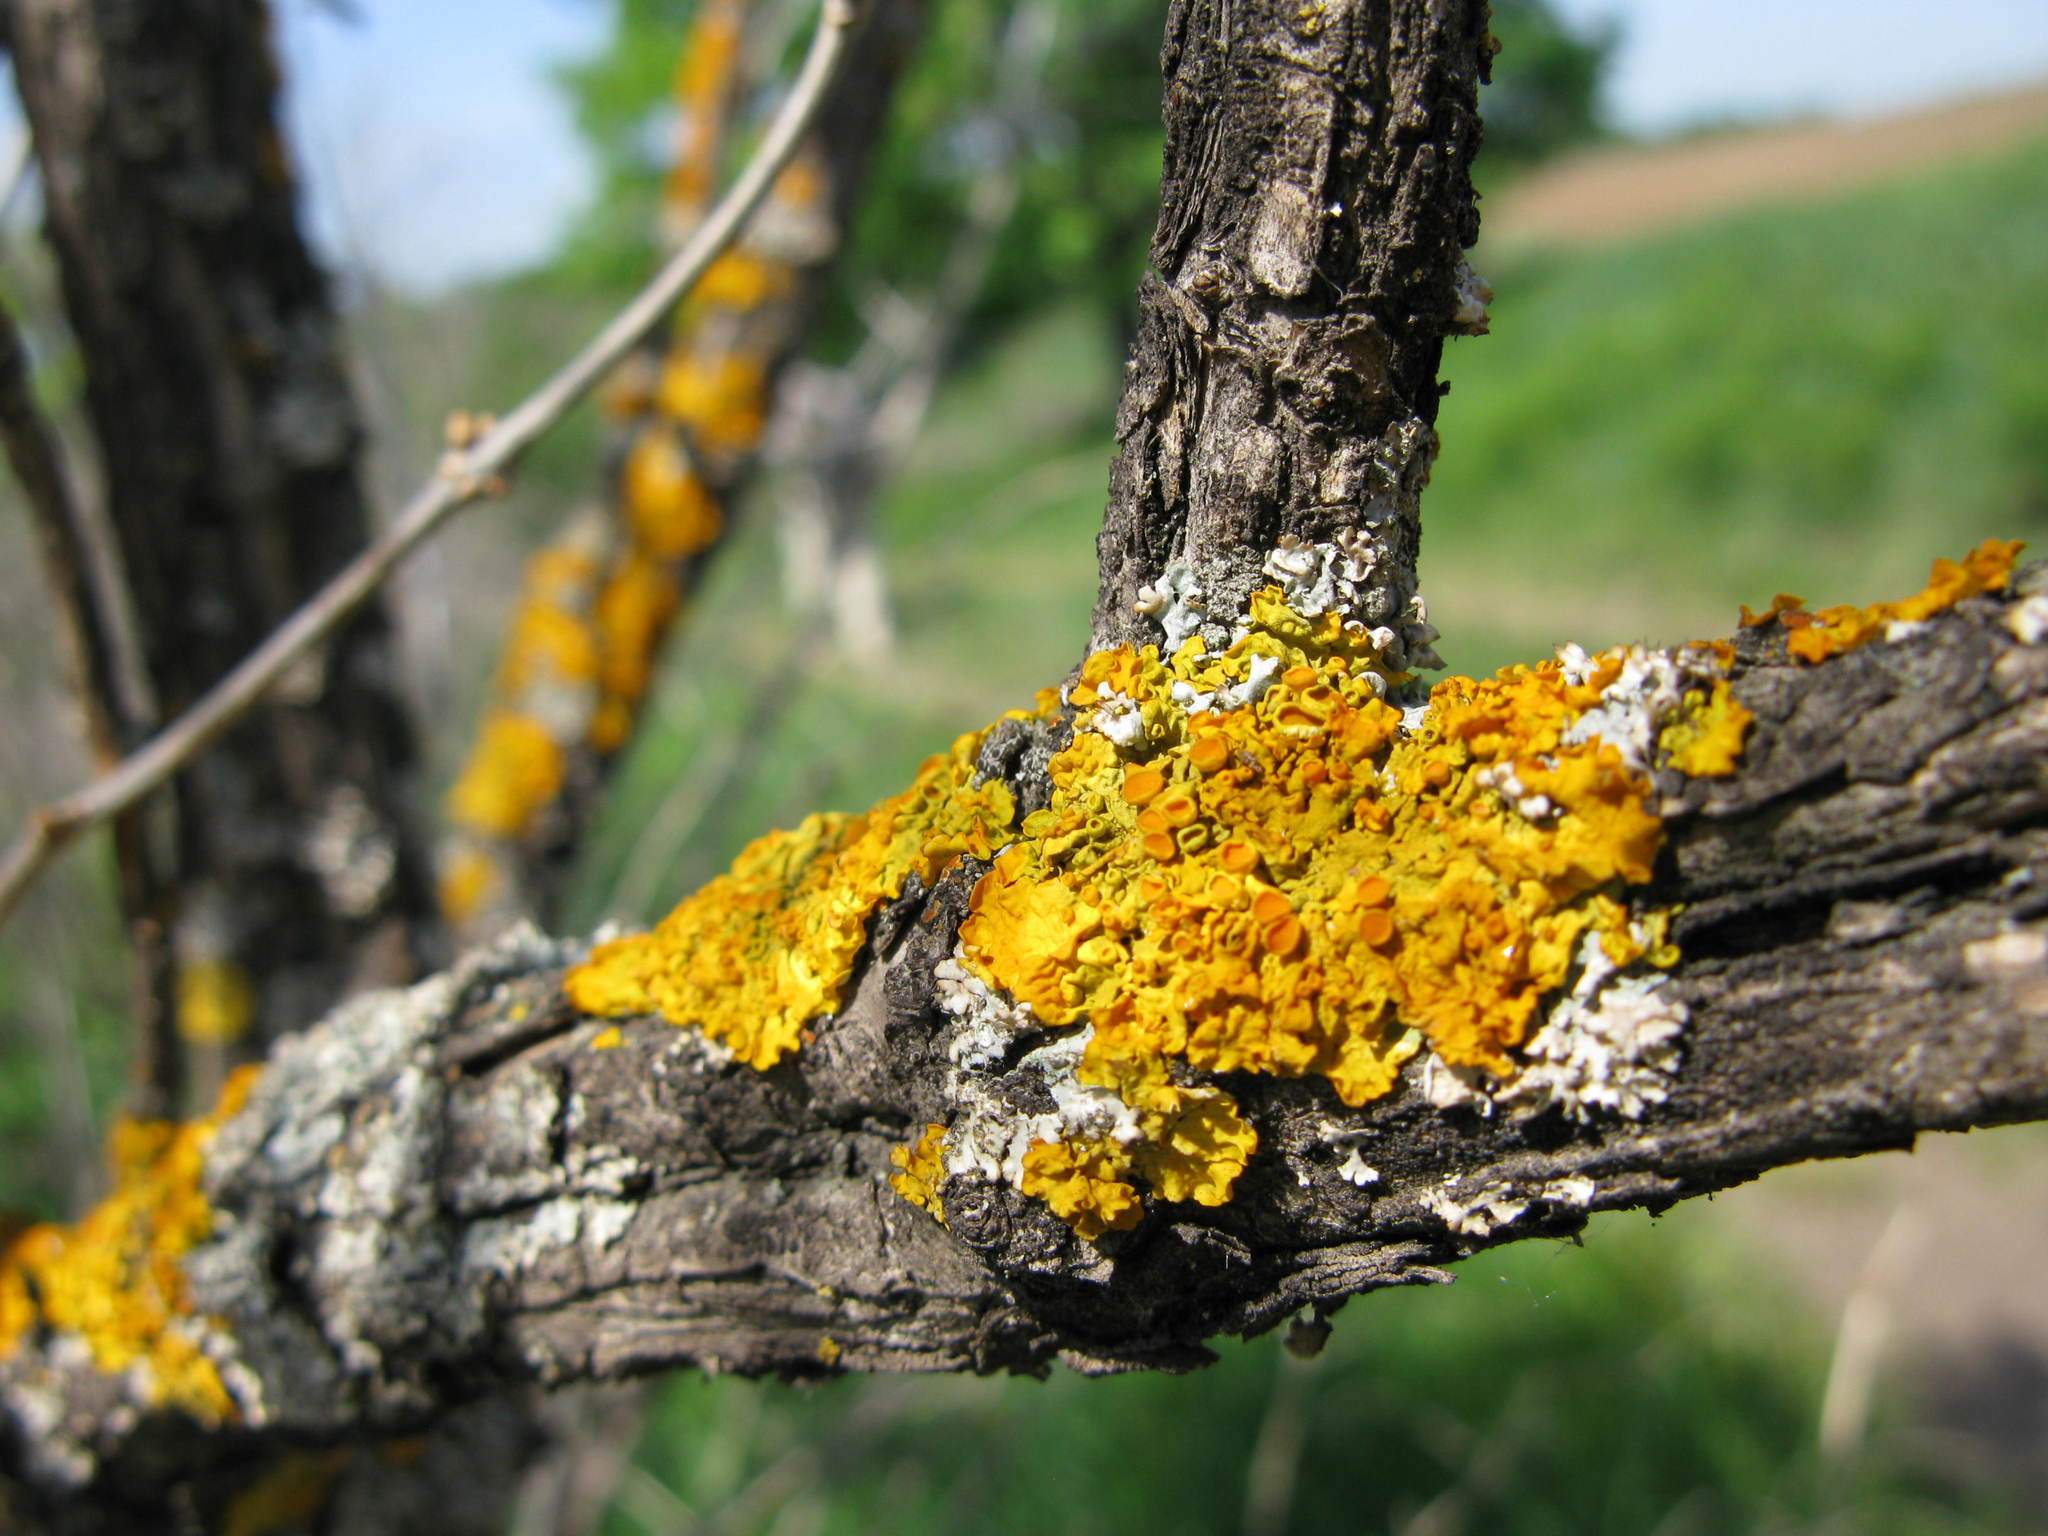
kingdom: Fungi
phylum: Ascomycota
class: Lecanoromycetes
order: Teloschistales
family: Teloschistaceae
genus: Xanthoria
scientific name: Xanthoria parietina
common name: Common orange lichen
